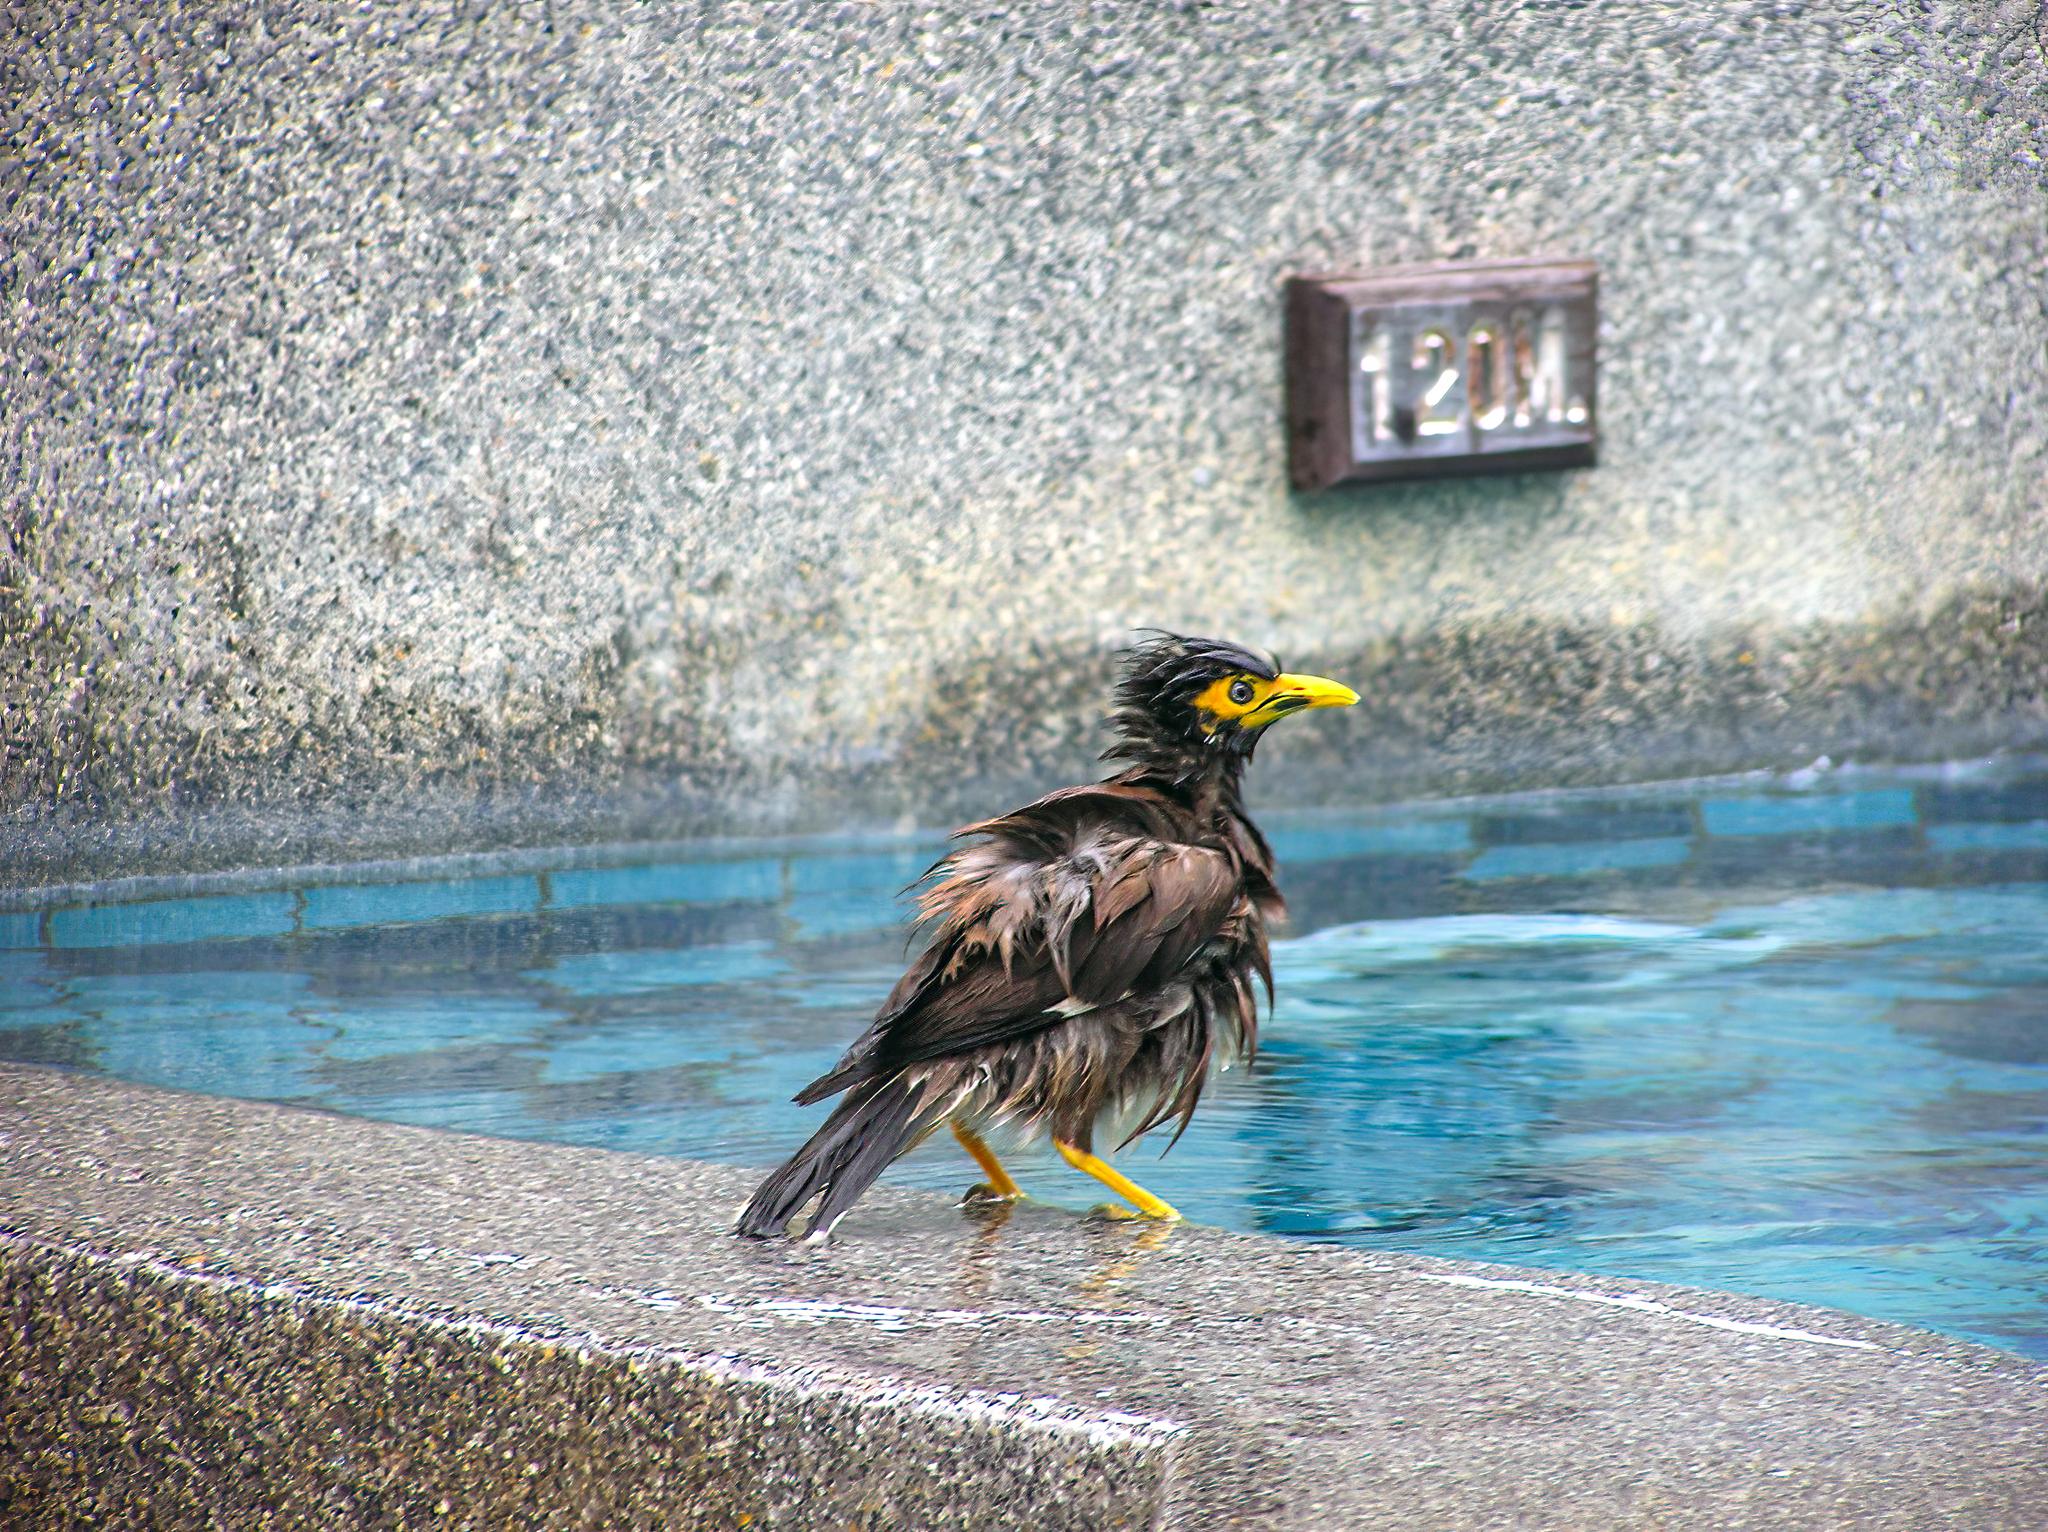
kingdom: Animalia
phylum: Chordata
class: Aves
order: Passeriformes
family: Sturnidae
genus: Acridotheres
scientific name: Acridotheres tristis
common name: Common myna
